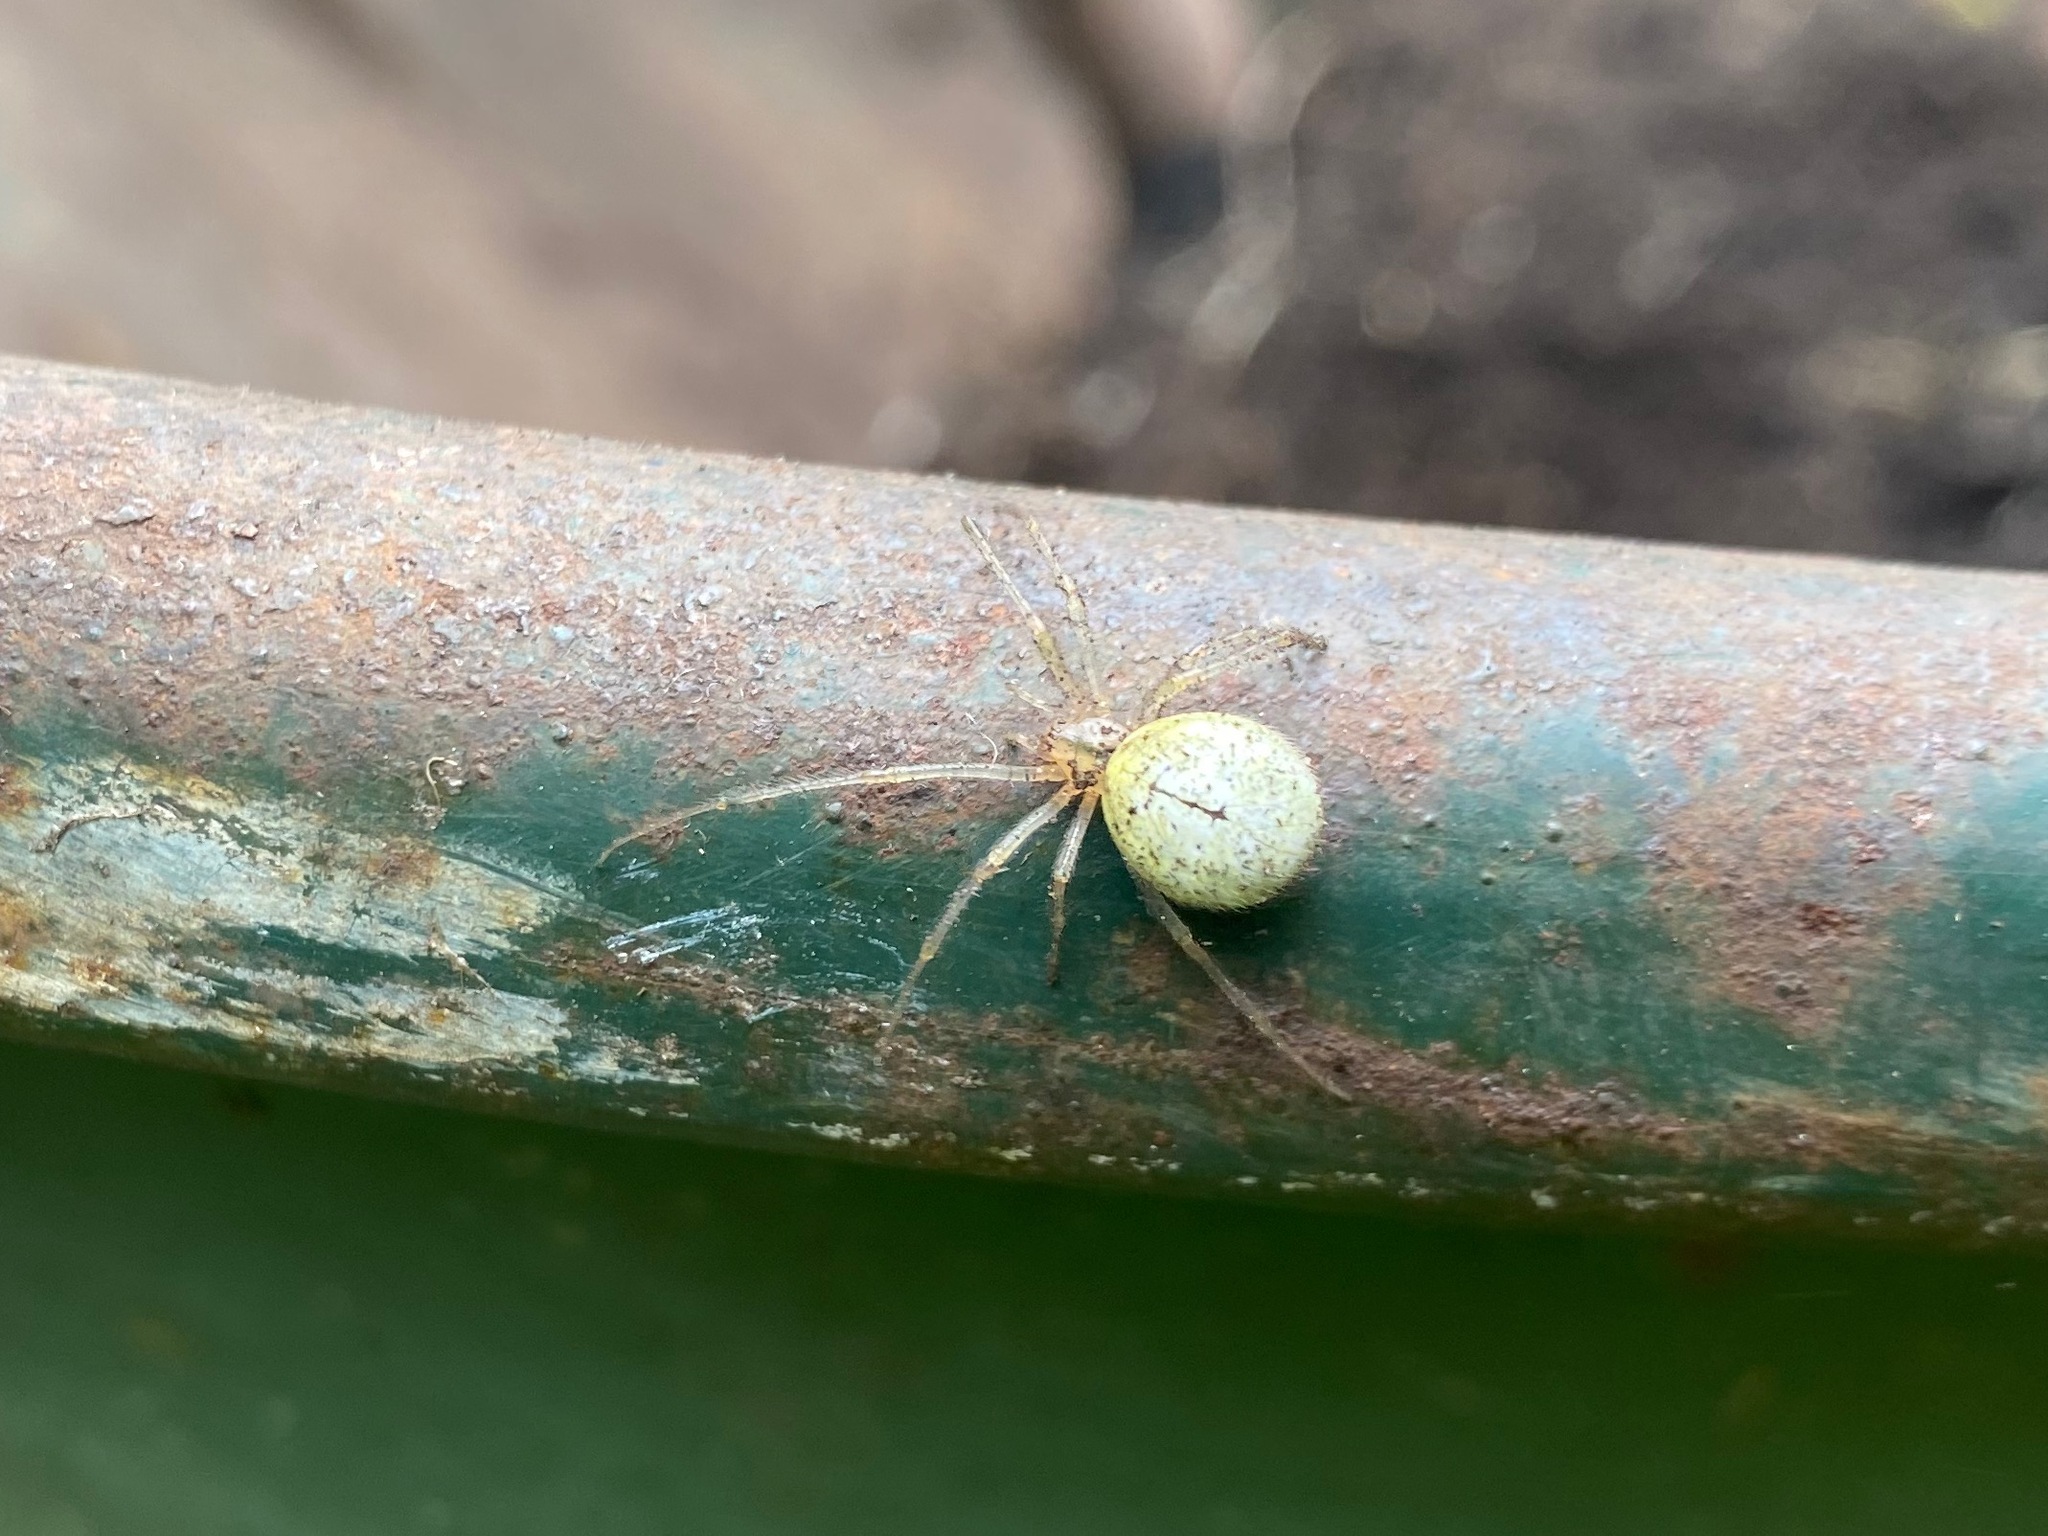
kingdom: Animalia
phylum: Arthropoda
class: Arachnida
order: Araneae
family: Theridiidae
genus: Enoplognatha
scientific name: Enoplognatha ovata
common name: Common candy-striped spider
